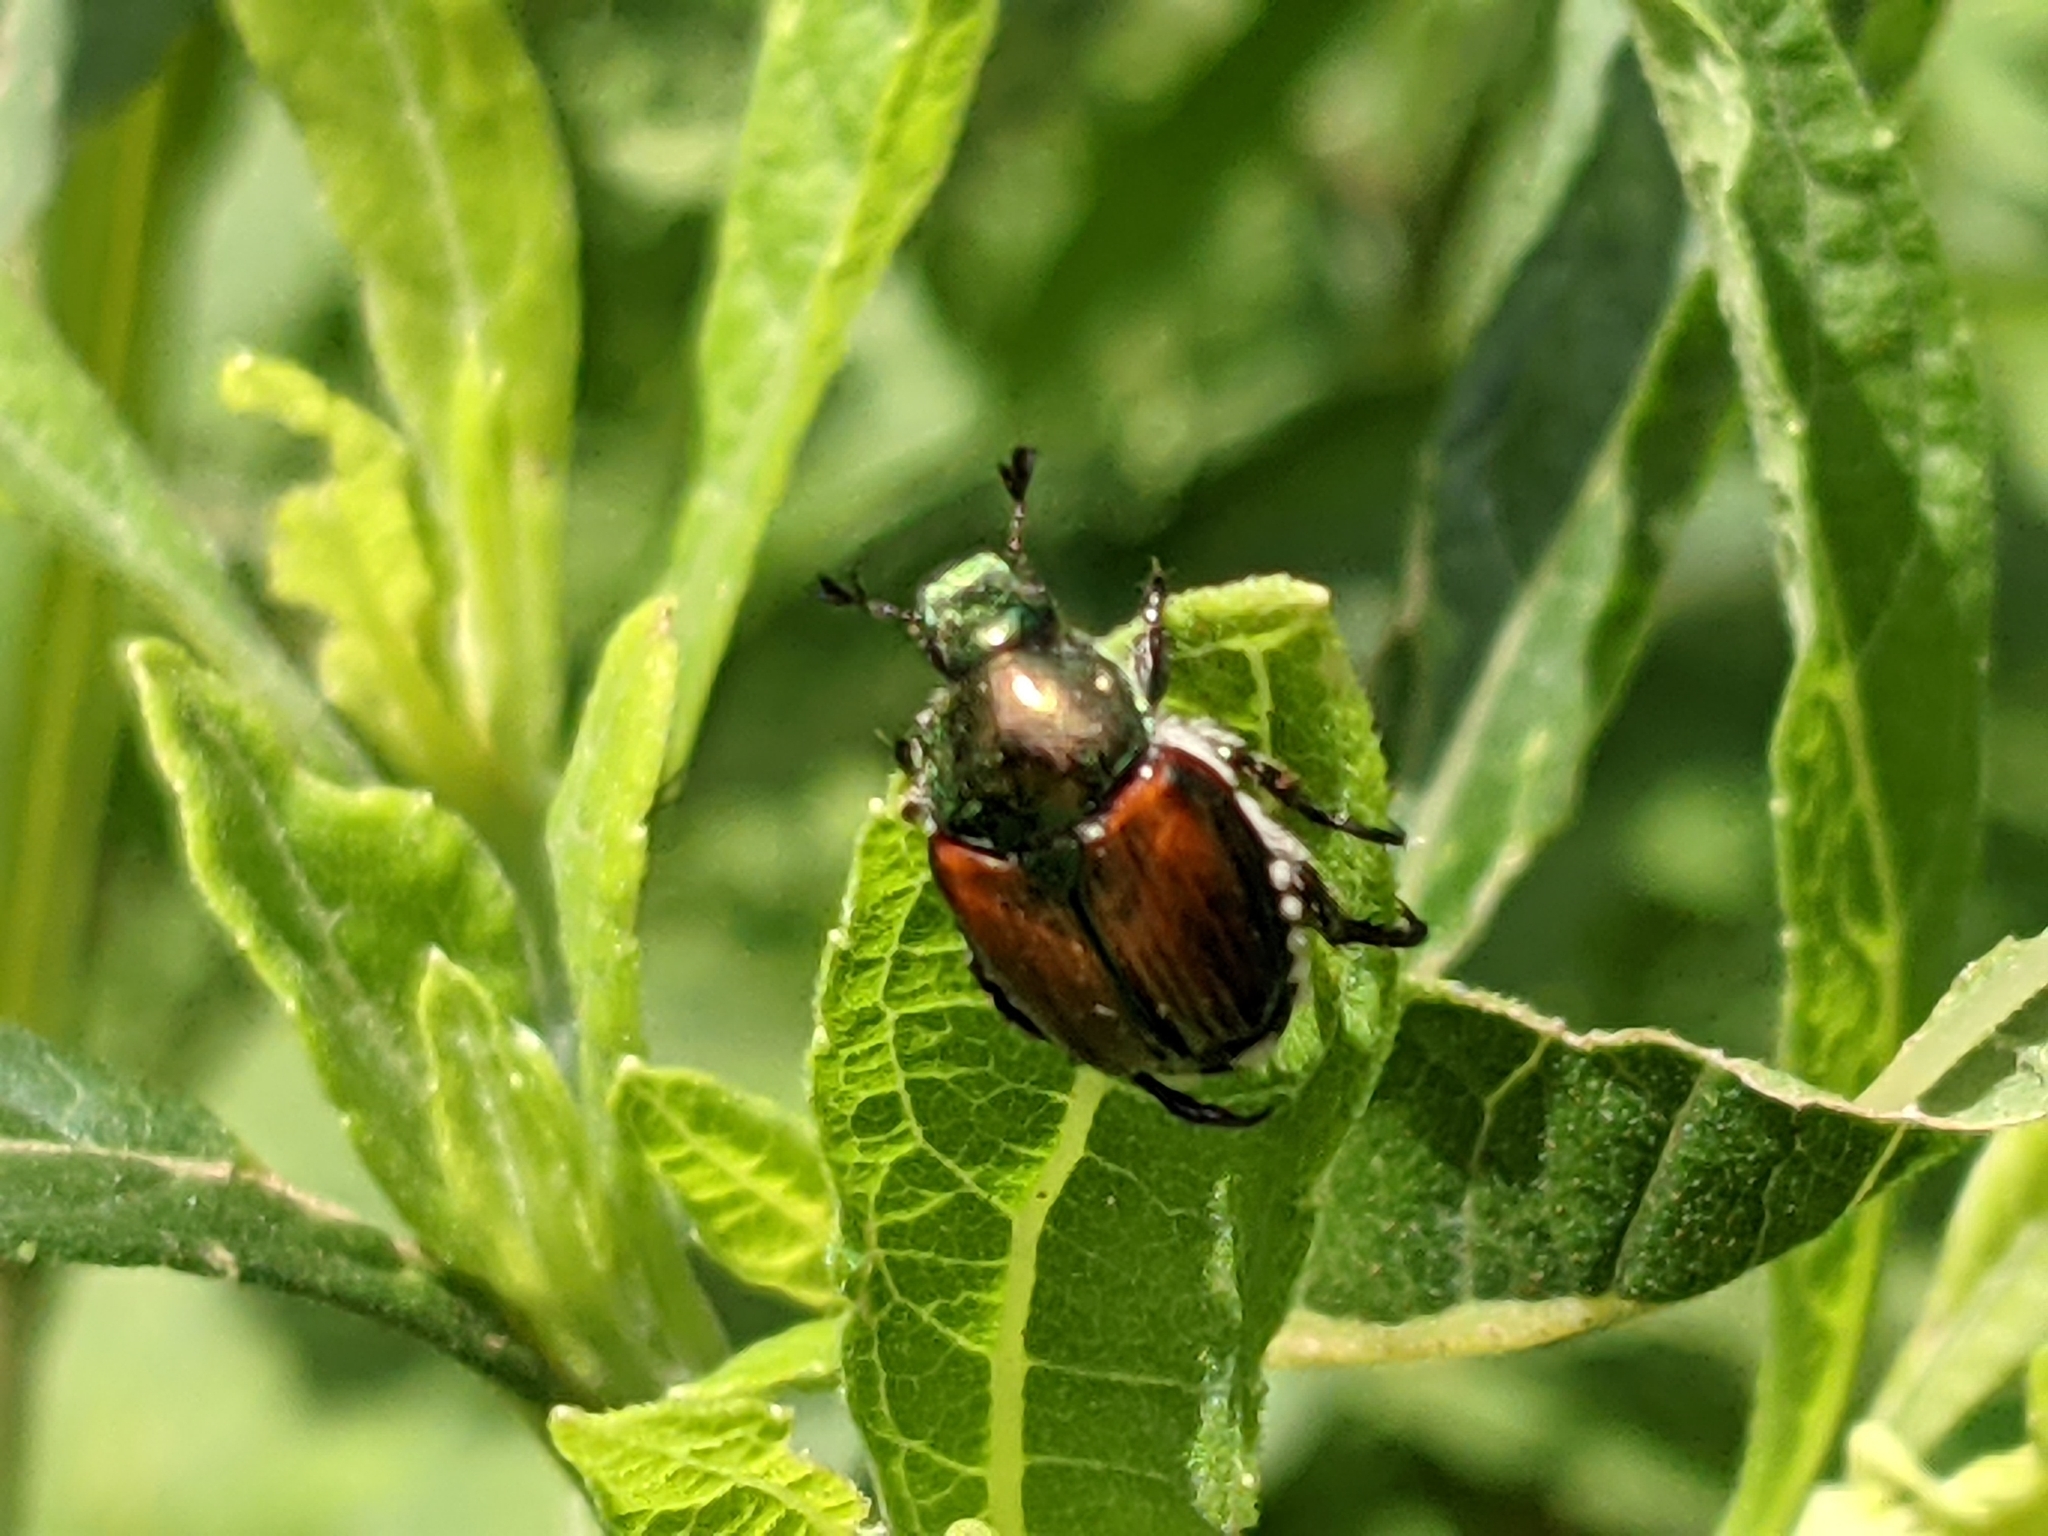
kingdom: Animalia
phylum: Arthropoda
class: Insecta
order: Coleoptera
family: Scarabaeidae
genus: Popillia
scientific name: Popillia japonica
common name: Japanese beetle
